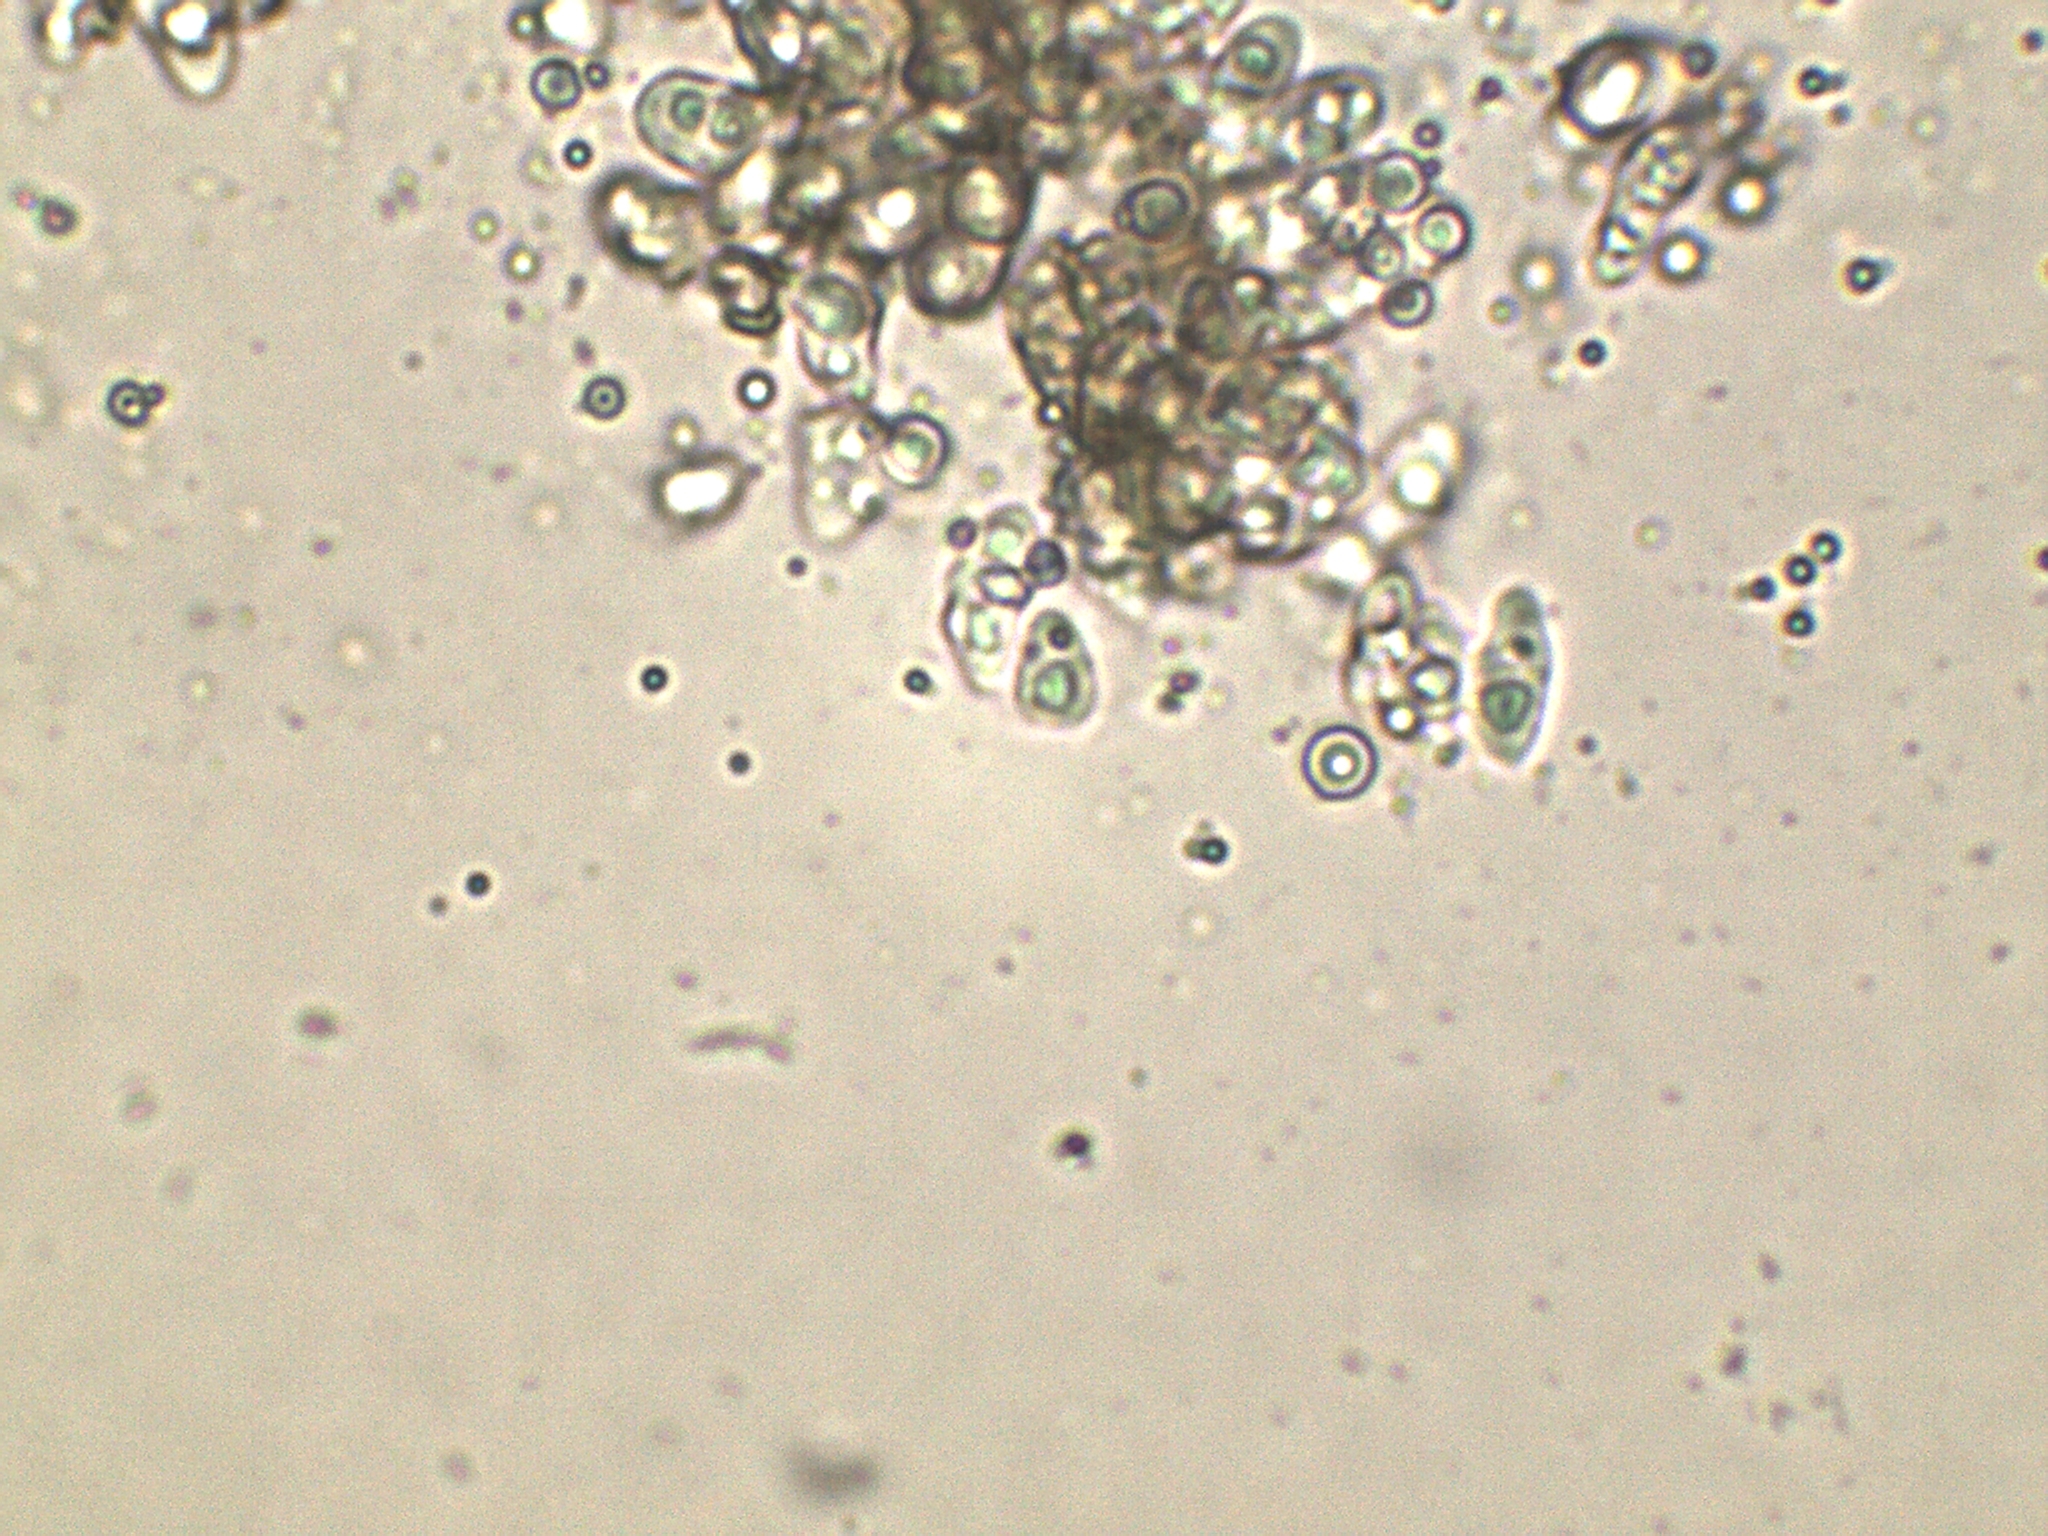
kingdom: Fungi
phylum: Ascomycota
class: Leotiomycetes
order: Rhytismatales
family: Ascodichaenaceae
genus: Ascodichaena
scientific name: Ascodichaena rugosa
